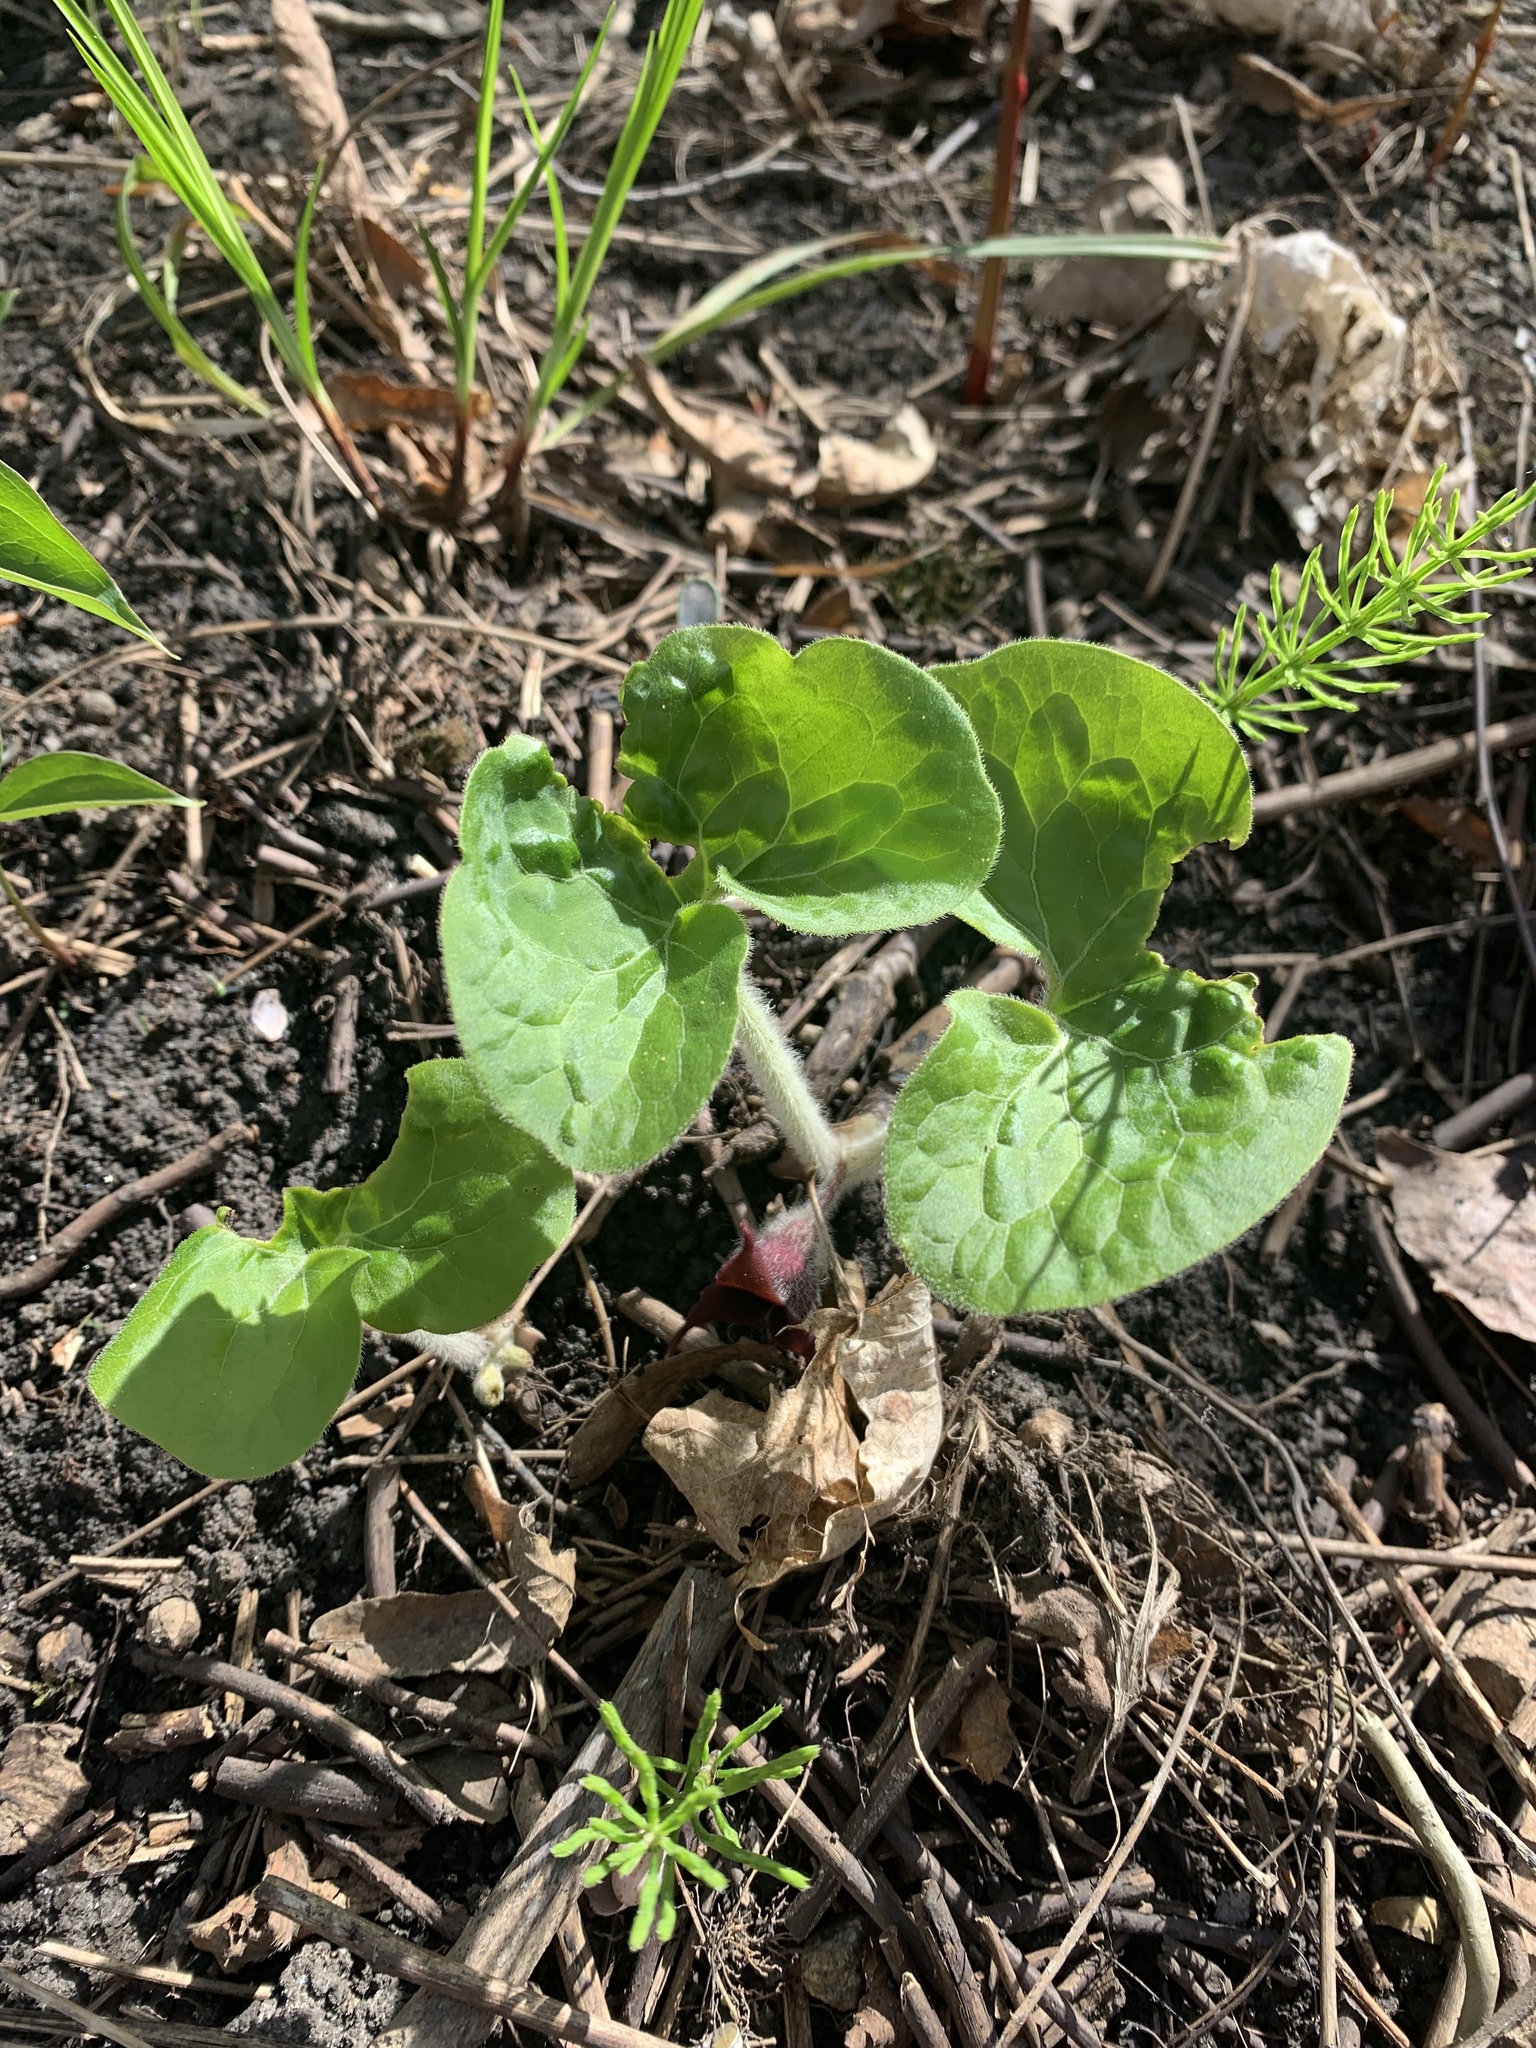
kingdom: Plantae
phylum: Tracheophyta
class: Magnoliopsida
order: Piperales
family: Aristolochiaceae
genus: Asarum
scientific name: Asarum canadense
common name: Wild ginger
